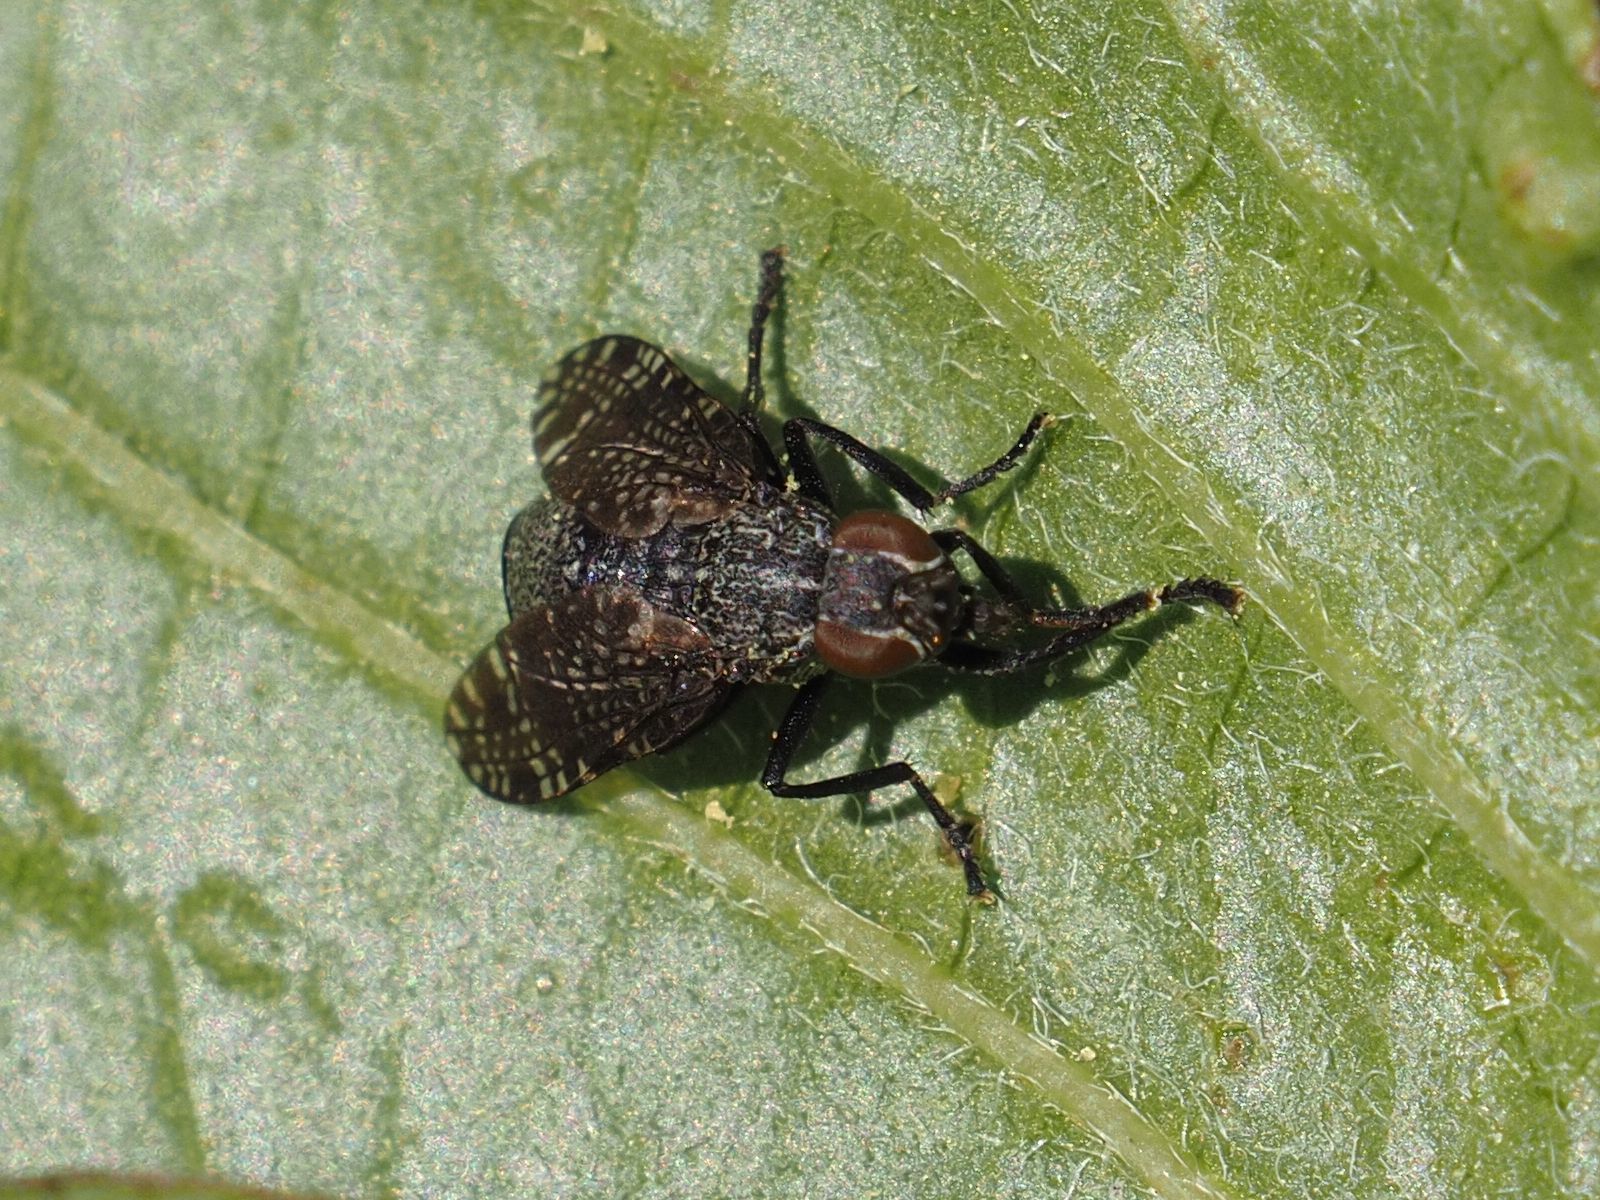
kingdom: Animalia
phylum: Arthropoda
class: Insecta
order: Diptera
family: Platystomatidae
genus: Platystoma
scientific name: Platystoma seminationis
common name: Fly
